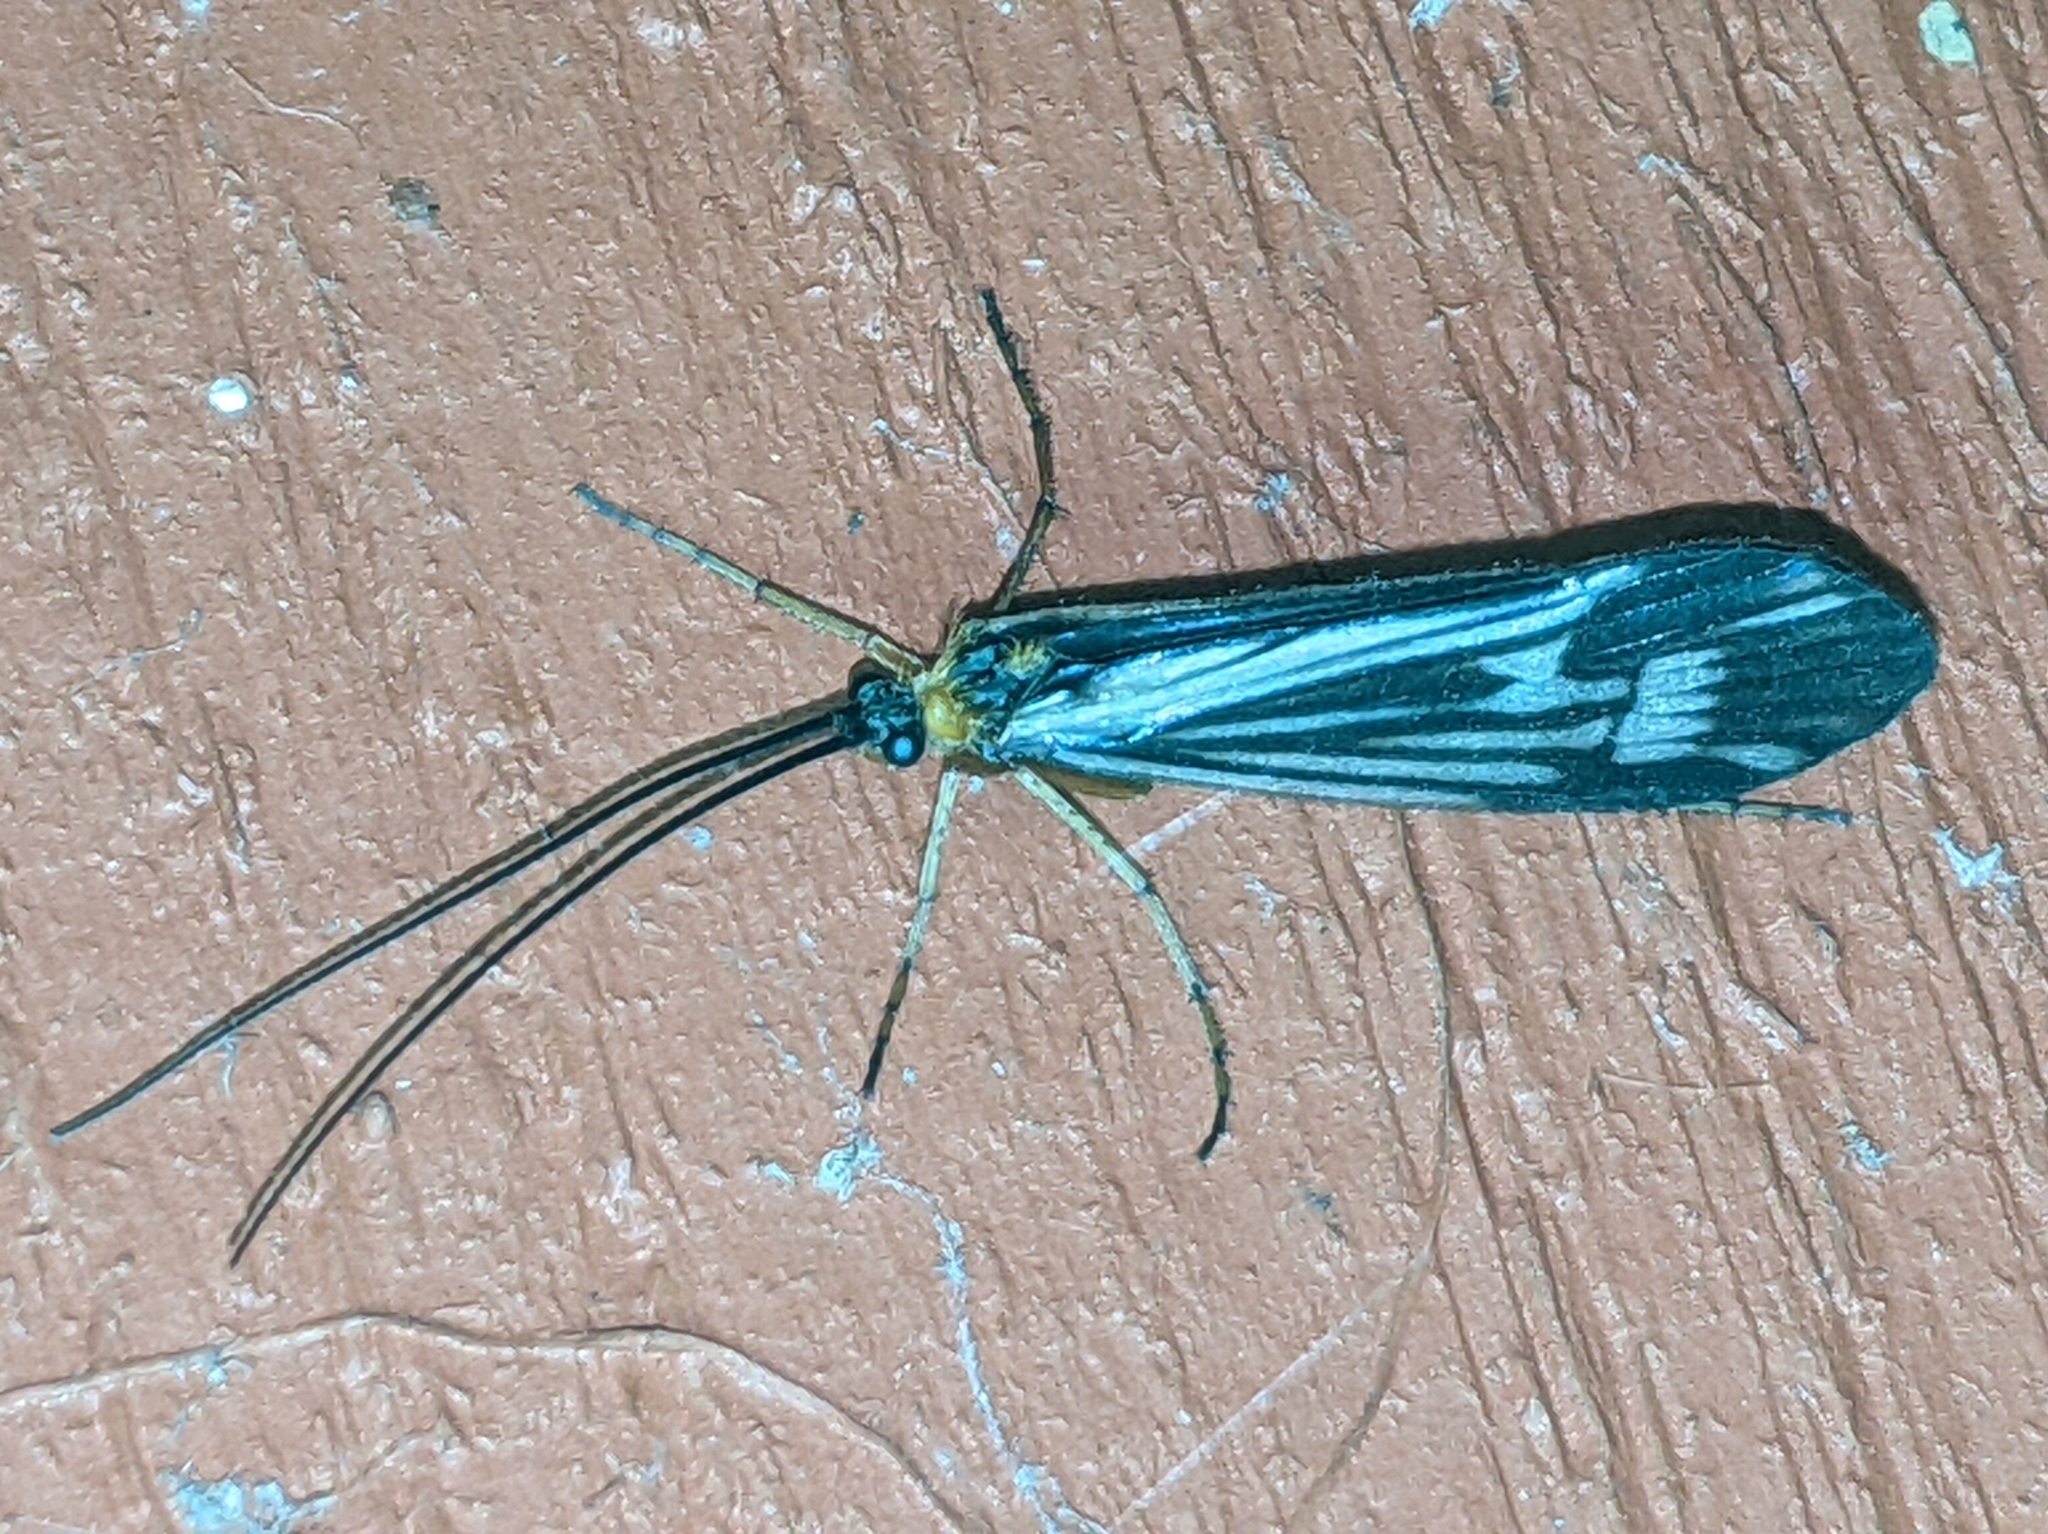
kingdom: Animalia
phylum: Arthropoda
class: Insecta
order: Trichoptera
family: Limnephilidae
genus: Halesochila
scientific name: Halesochila taylori
